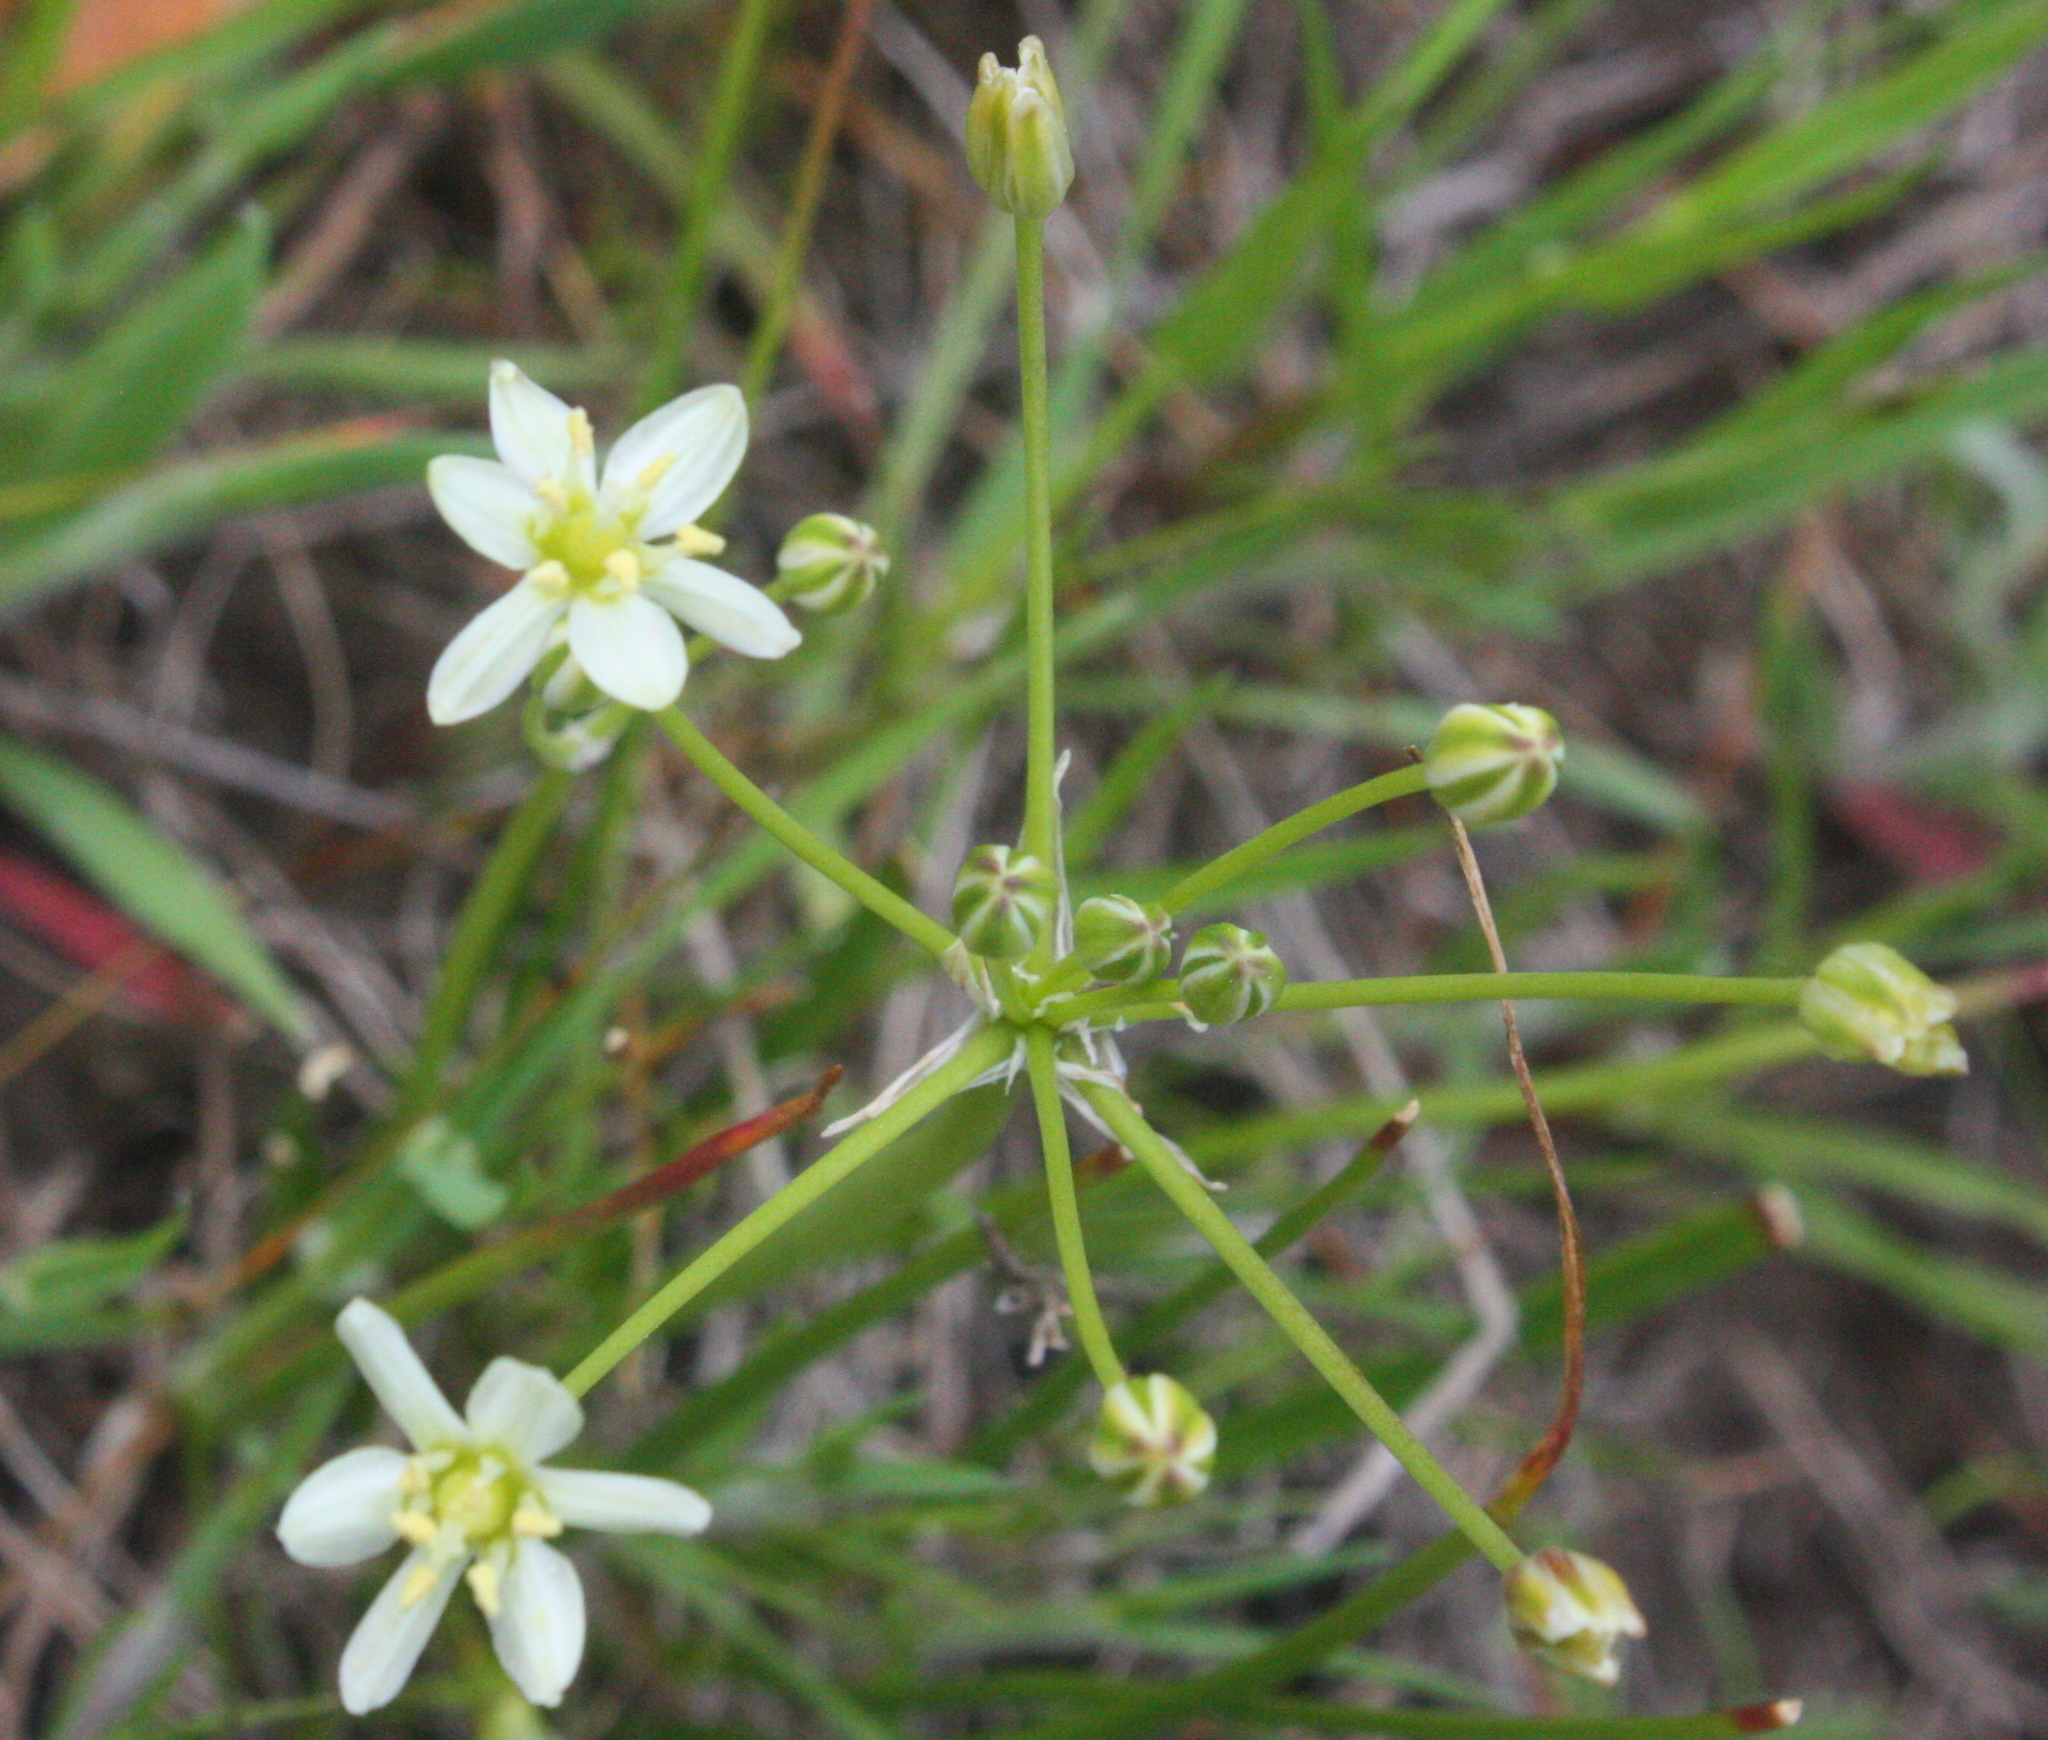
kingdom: Plantae
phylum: Tracheophyta
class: Liliopsida
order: Asparagales
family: Asparagaceae
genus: Muilla
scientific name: Muilla maritima
